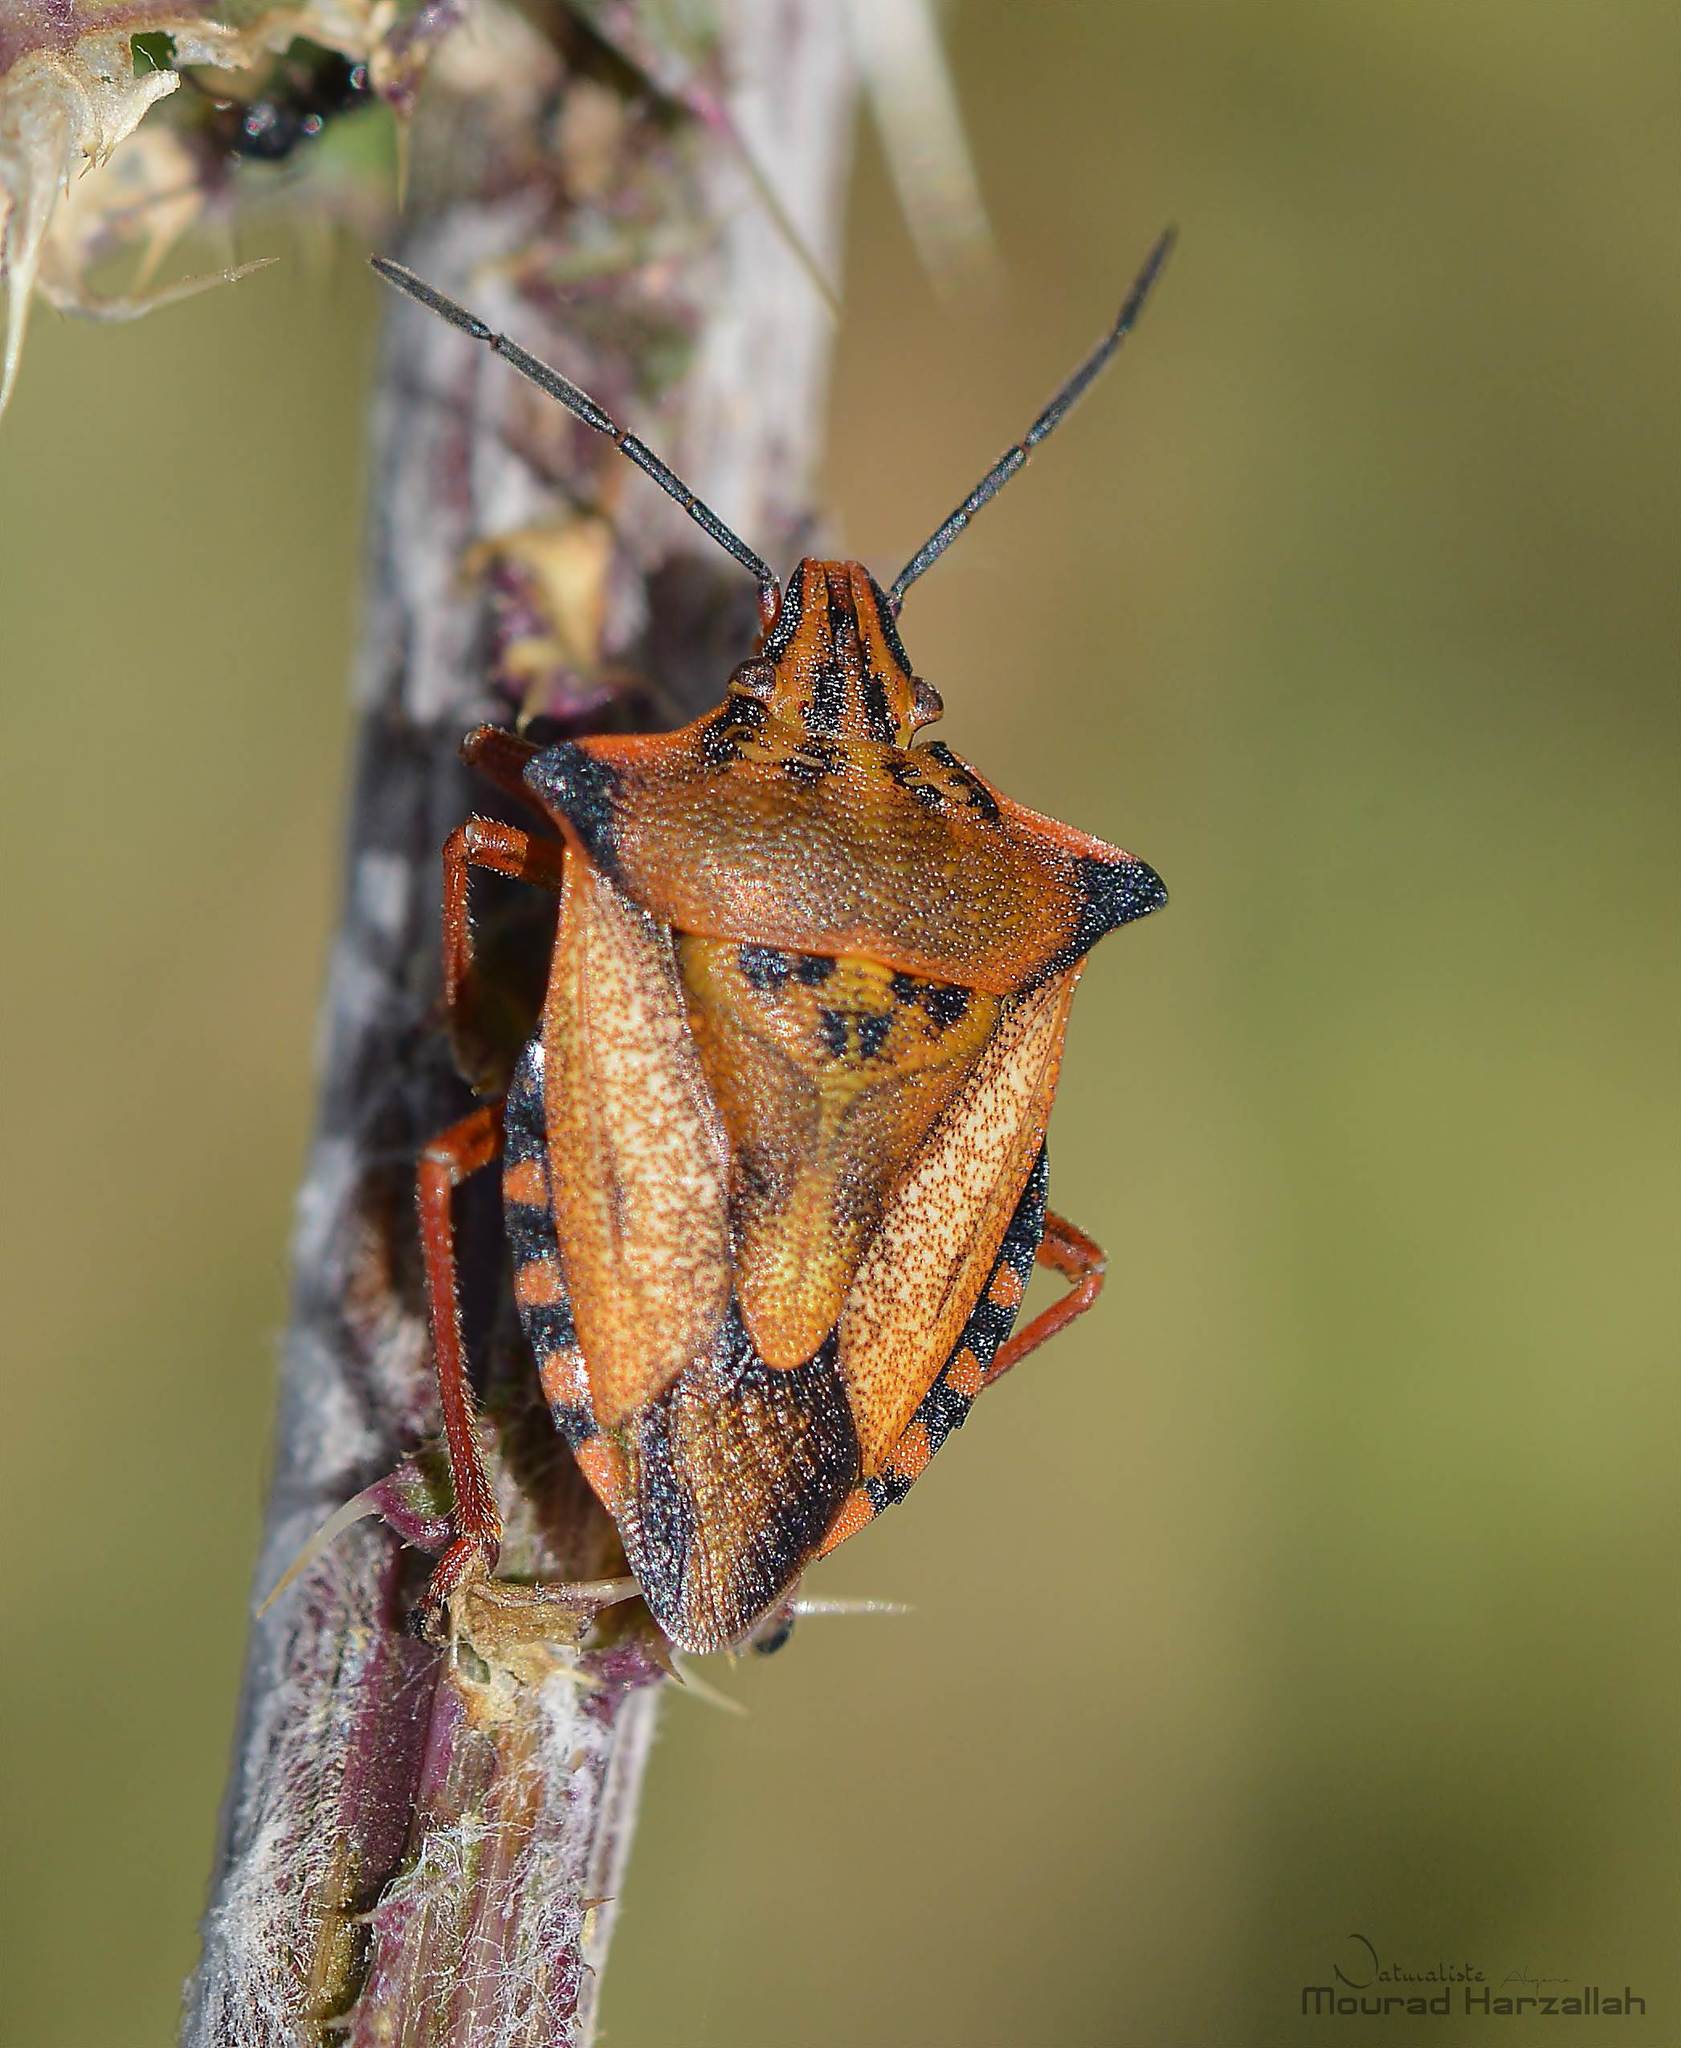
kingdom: Animalia
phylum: Arthropoda
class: Insecta
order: Hemiptera
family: Pentatomidae
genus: Carpocoris
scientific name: Carpocoris mediterraneus
